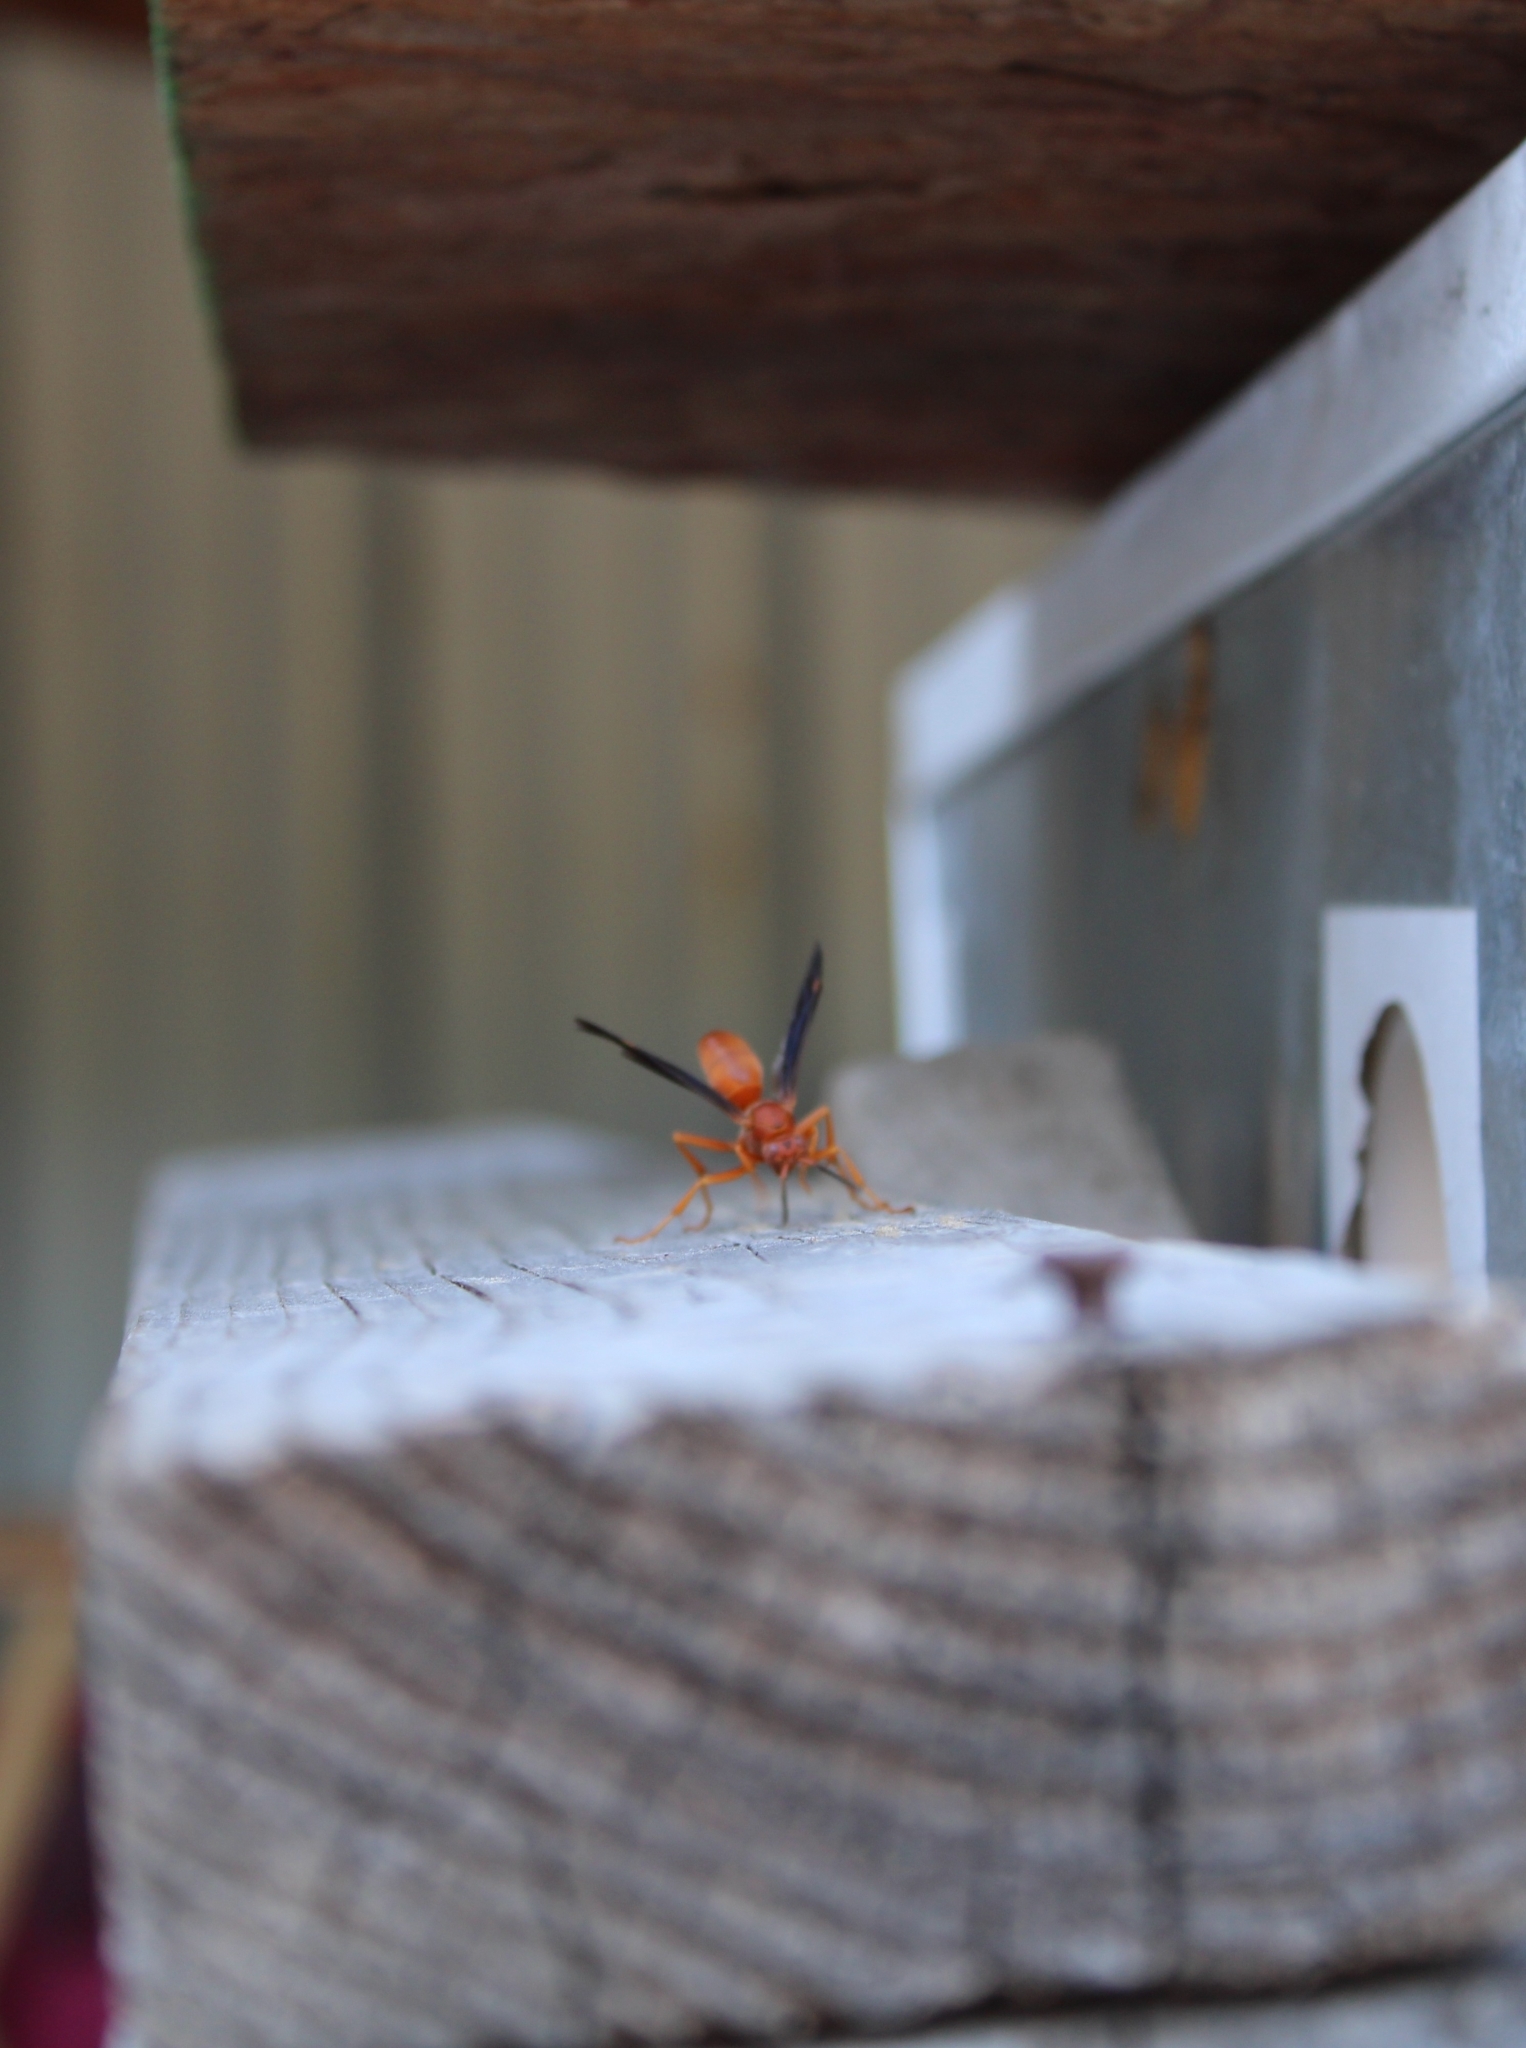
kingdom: Animalia
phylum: Arthropoda
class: Insecta
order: Hymenoptera
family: Vespidae
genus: Fuscopolistes
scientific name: Fuscopolistes
